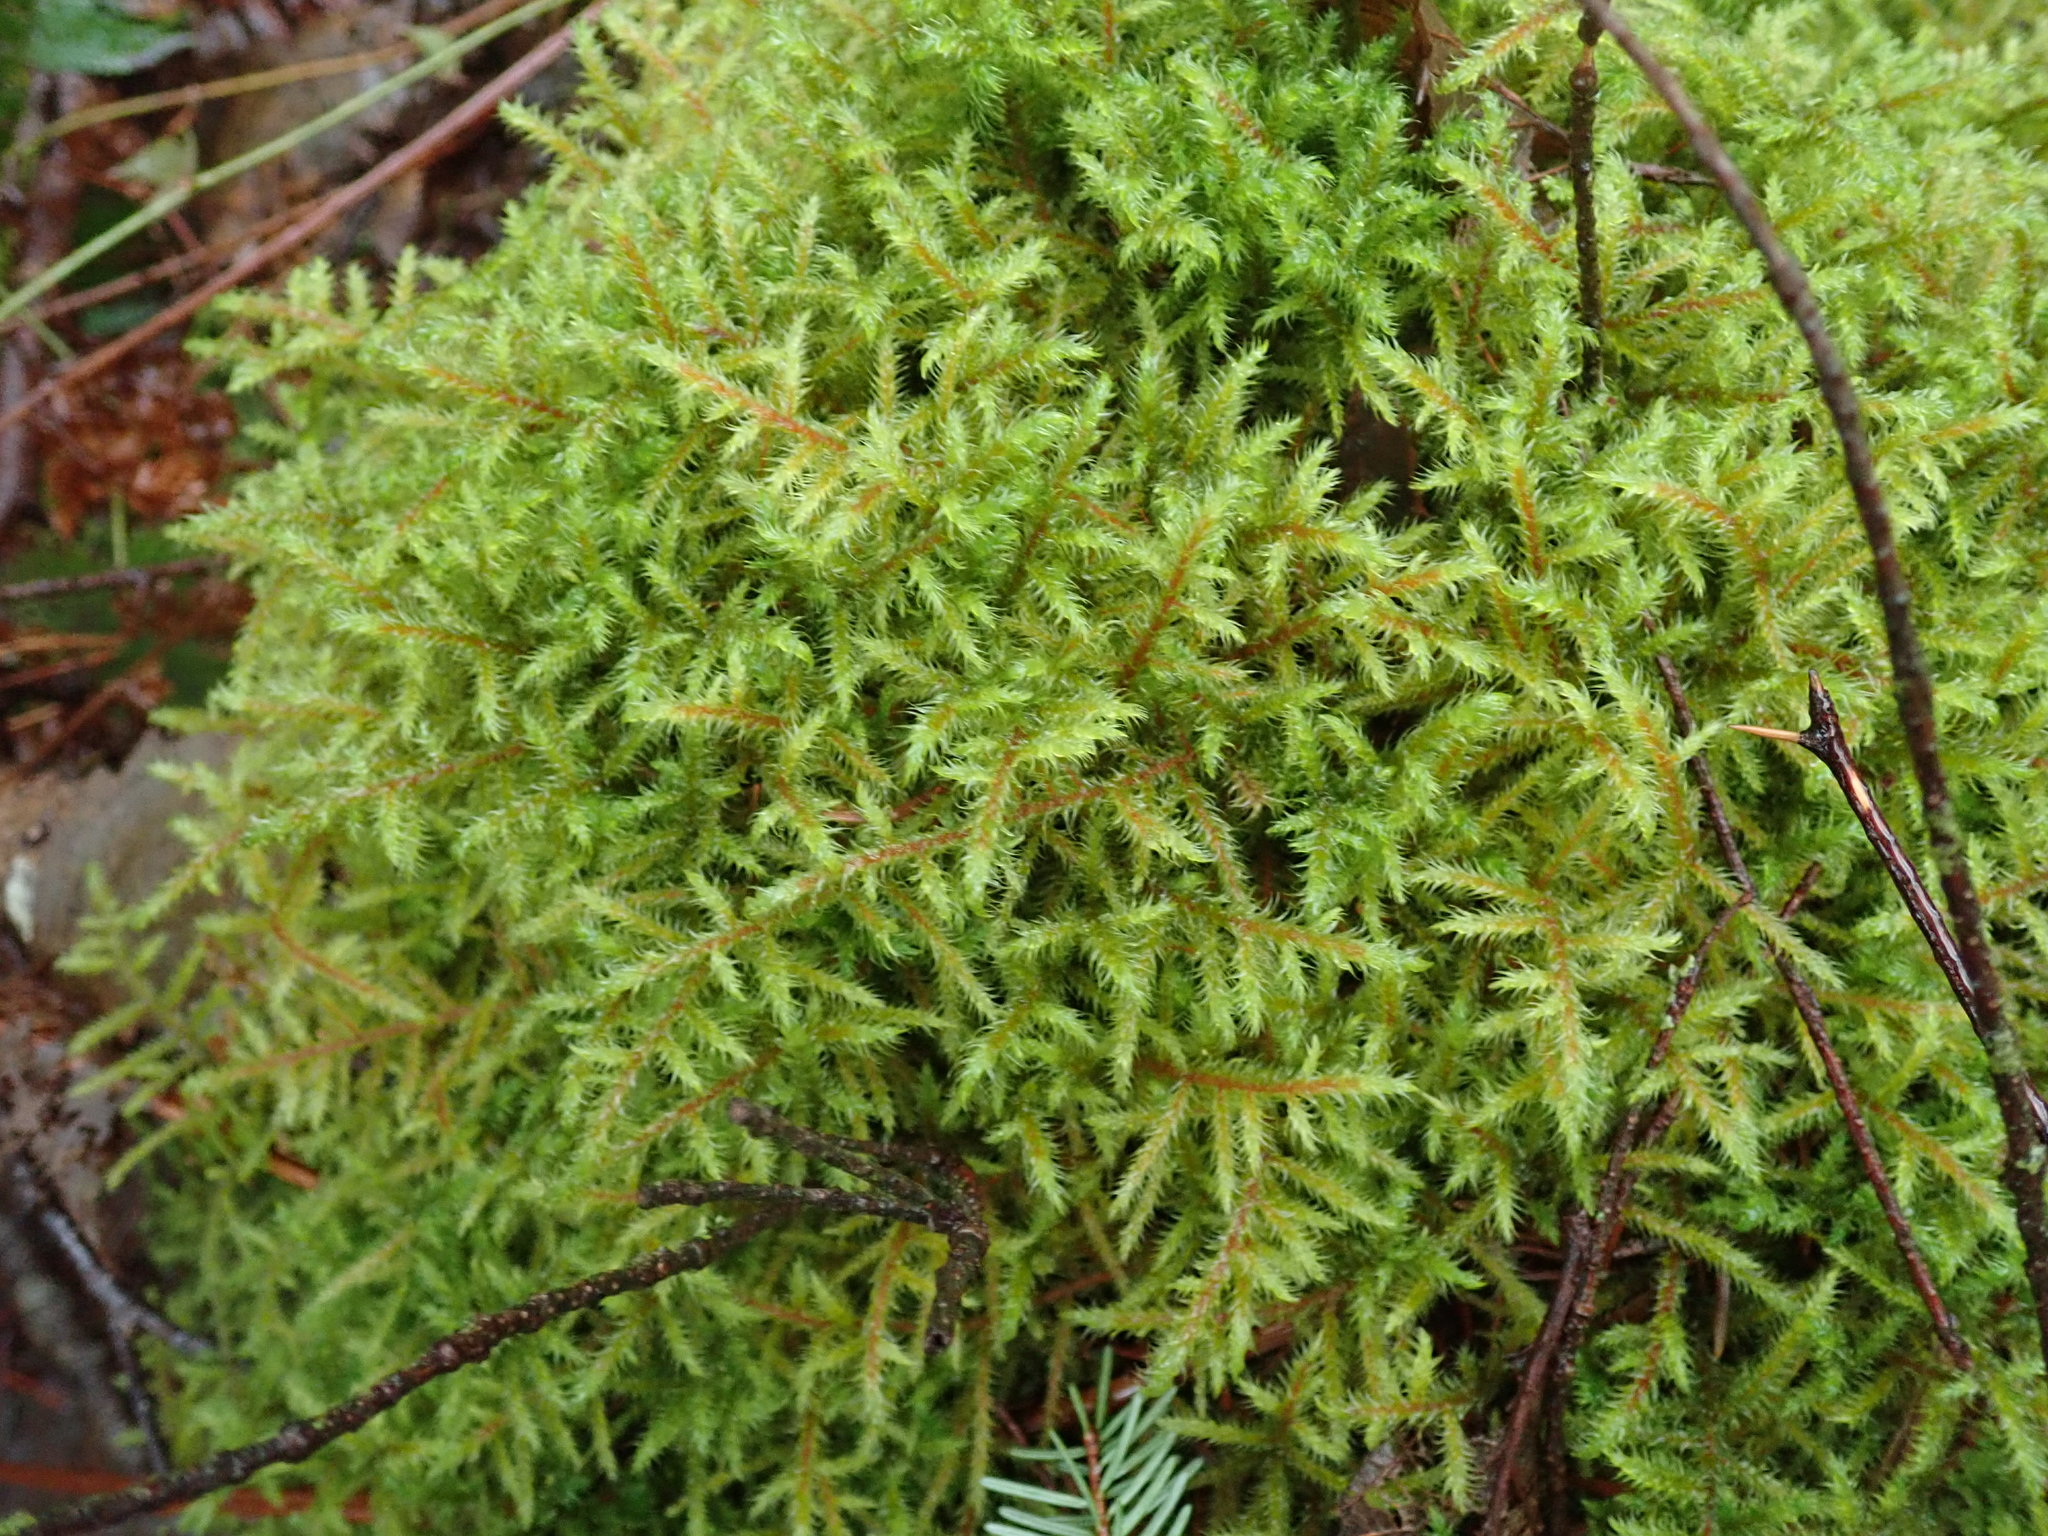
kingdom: Plantae
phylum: Bryophyta
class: Bryopsida
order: Hypnales
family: Hylocomiaceae
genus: Rhytidiadelphus
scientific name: Rhytidiadelphus loreus
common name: Lanky moss
